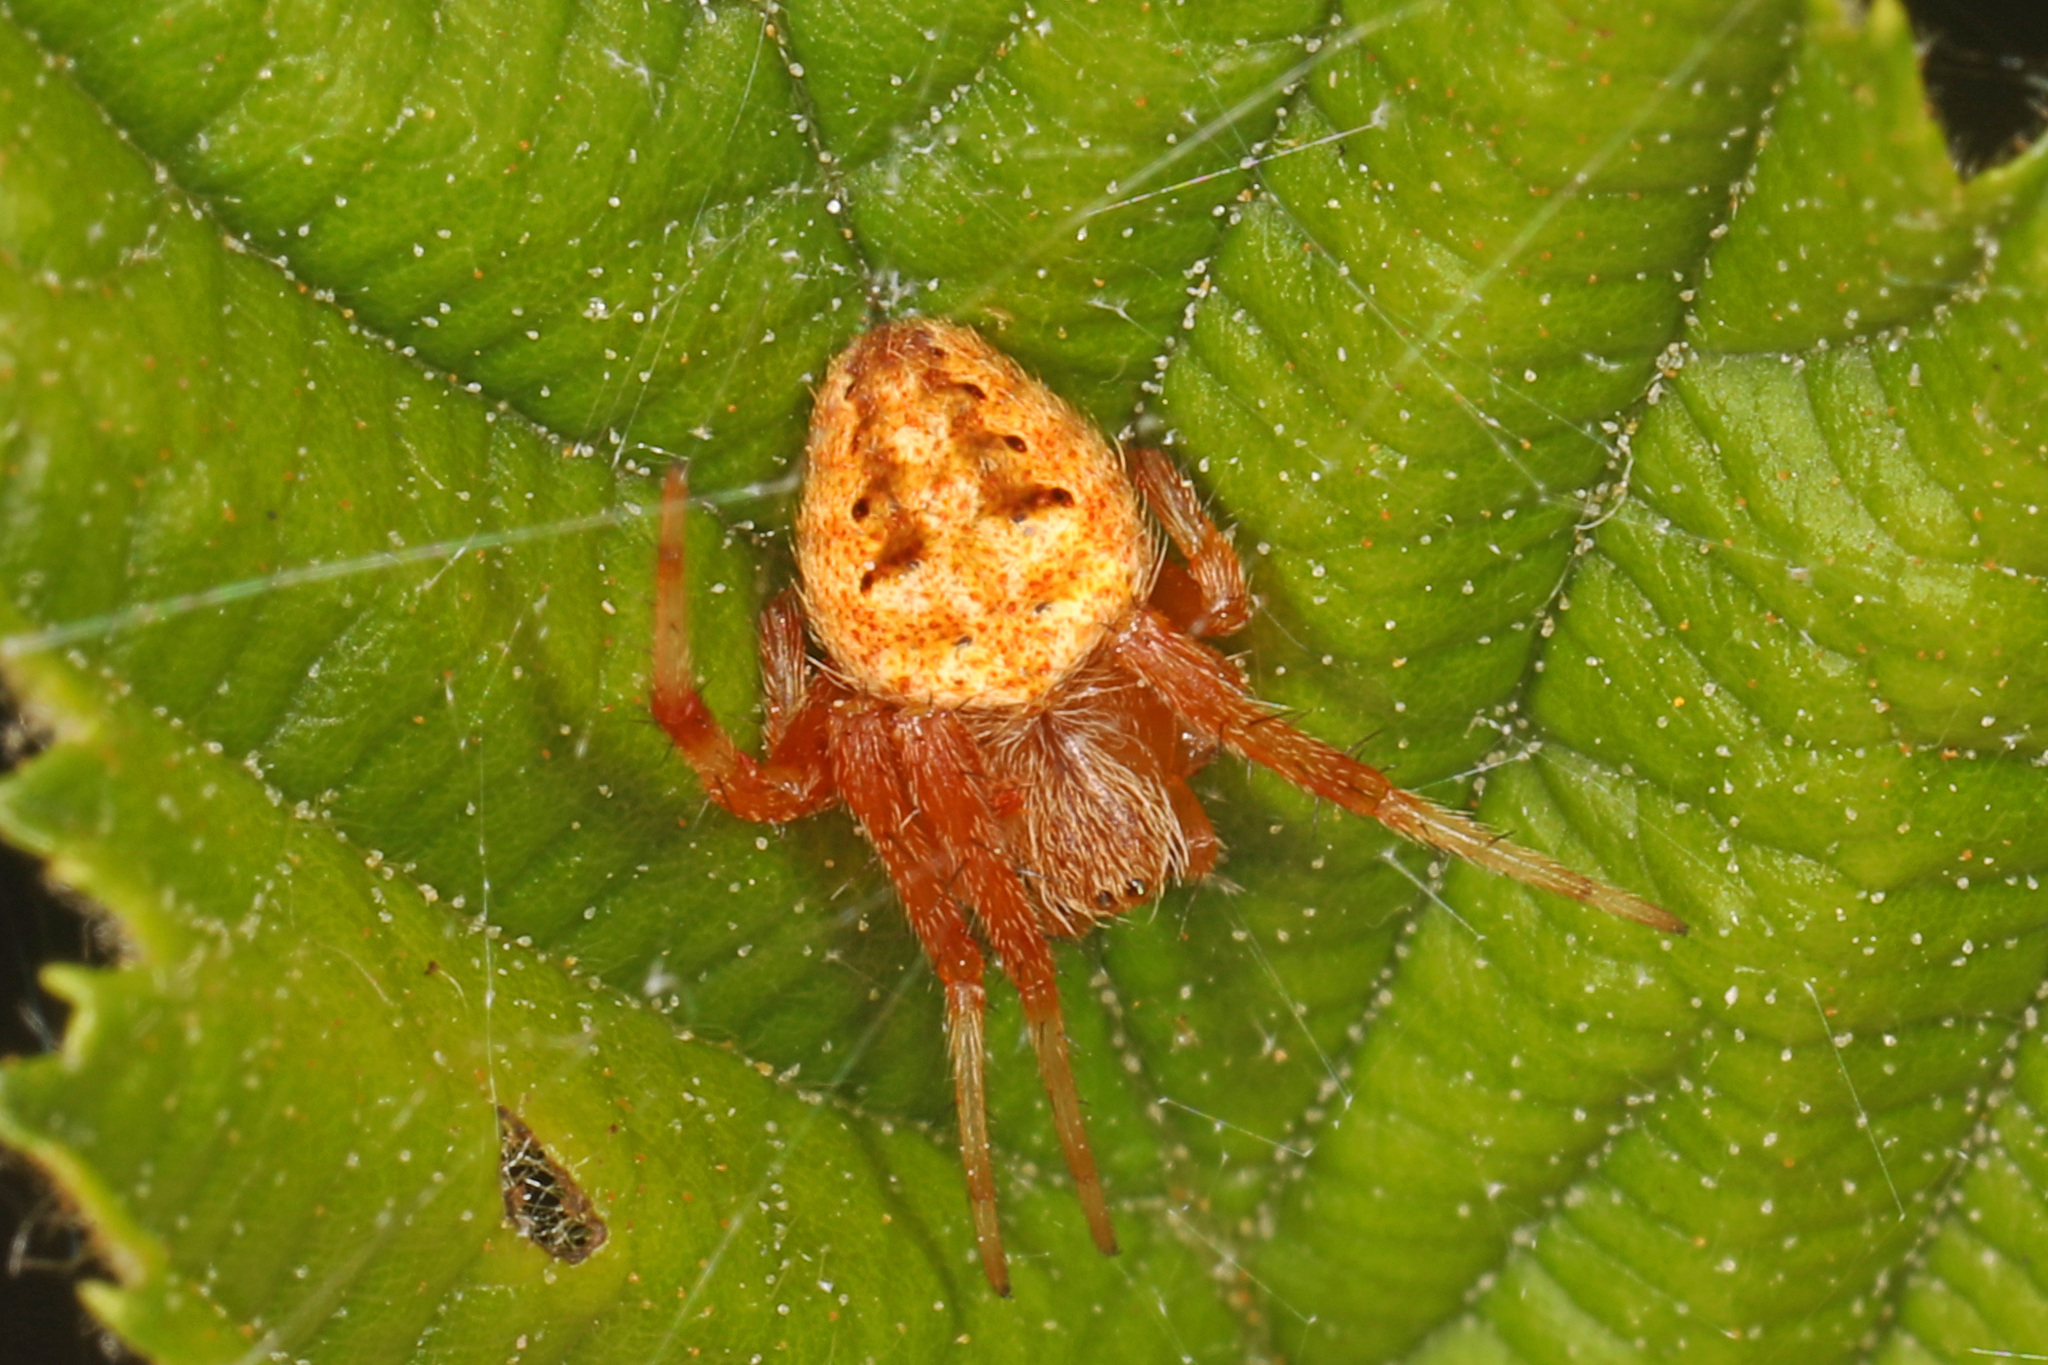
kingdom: Animalia
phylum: Arthropoda
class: Arachnida
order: Araneae
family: Araneidae
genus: Neoscona
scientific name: Neoscona arabesca
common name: Orb weavers
